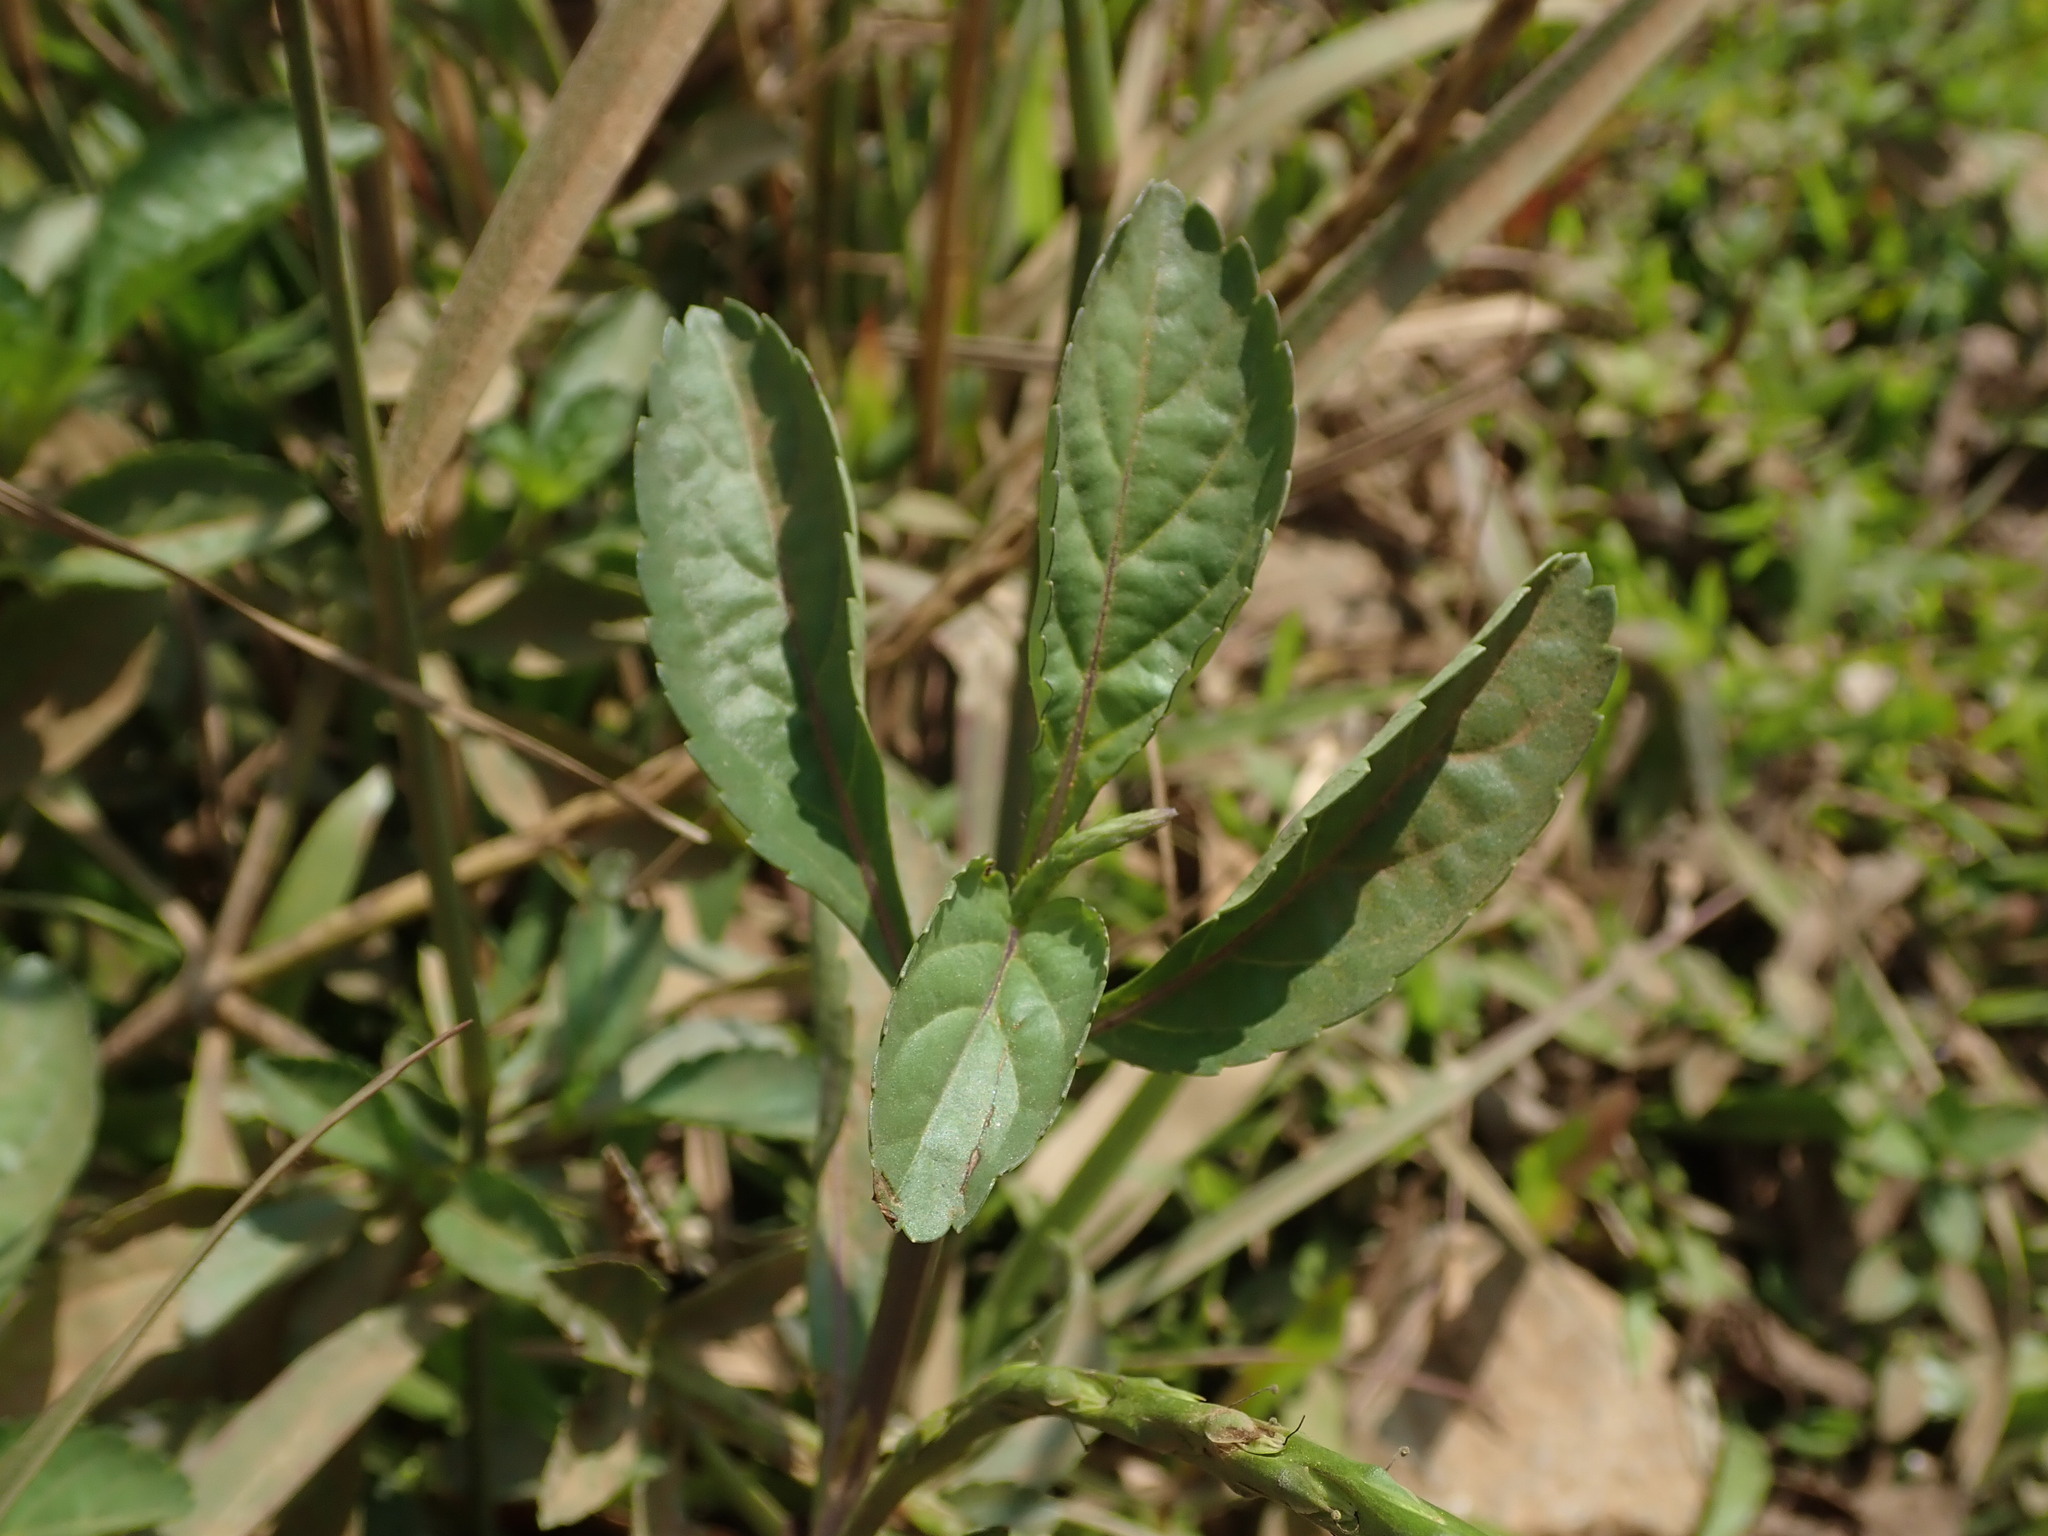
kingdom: Plantae
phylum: Tracheophyta
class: Magnoliopsida
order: Lamiales
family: Verbenaceae
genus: Stachytarpheta
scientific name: Stachytarpheta jamaicensis
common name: Light-blue snakeweed
